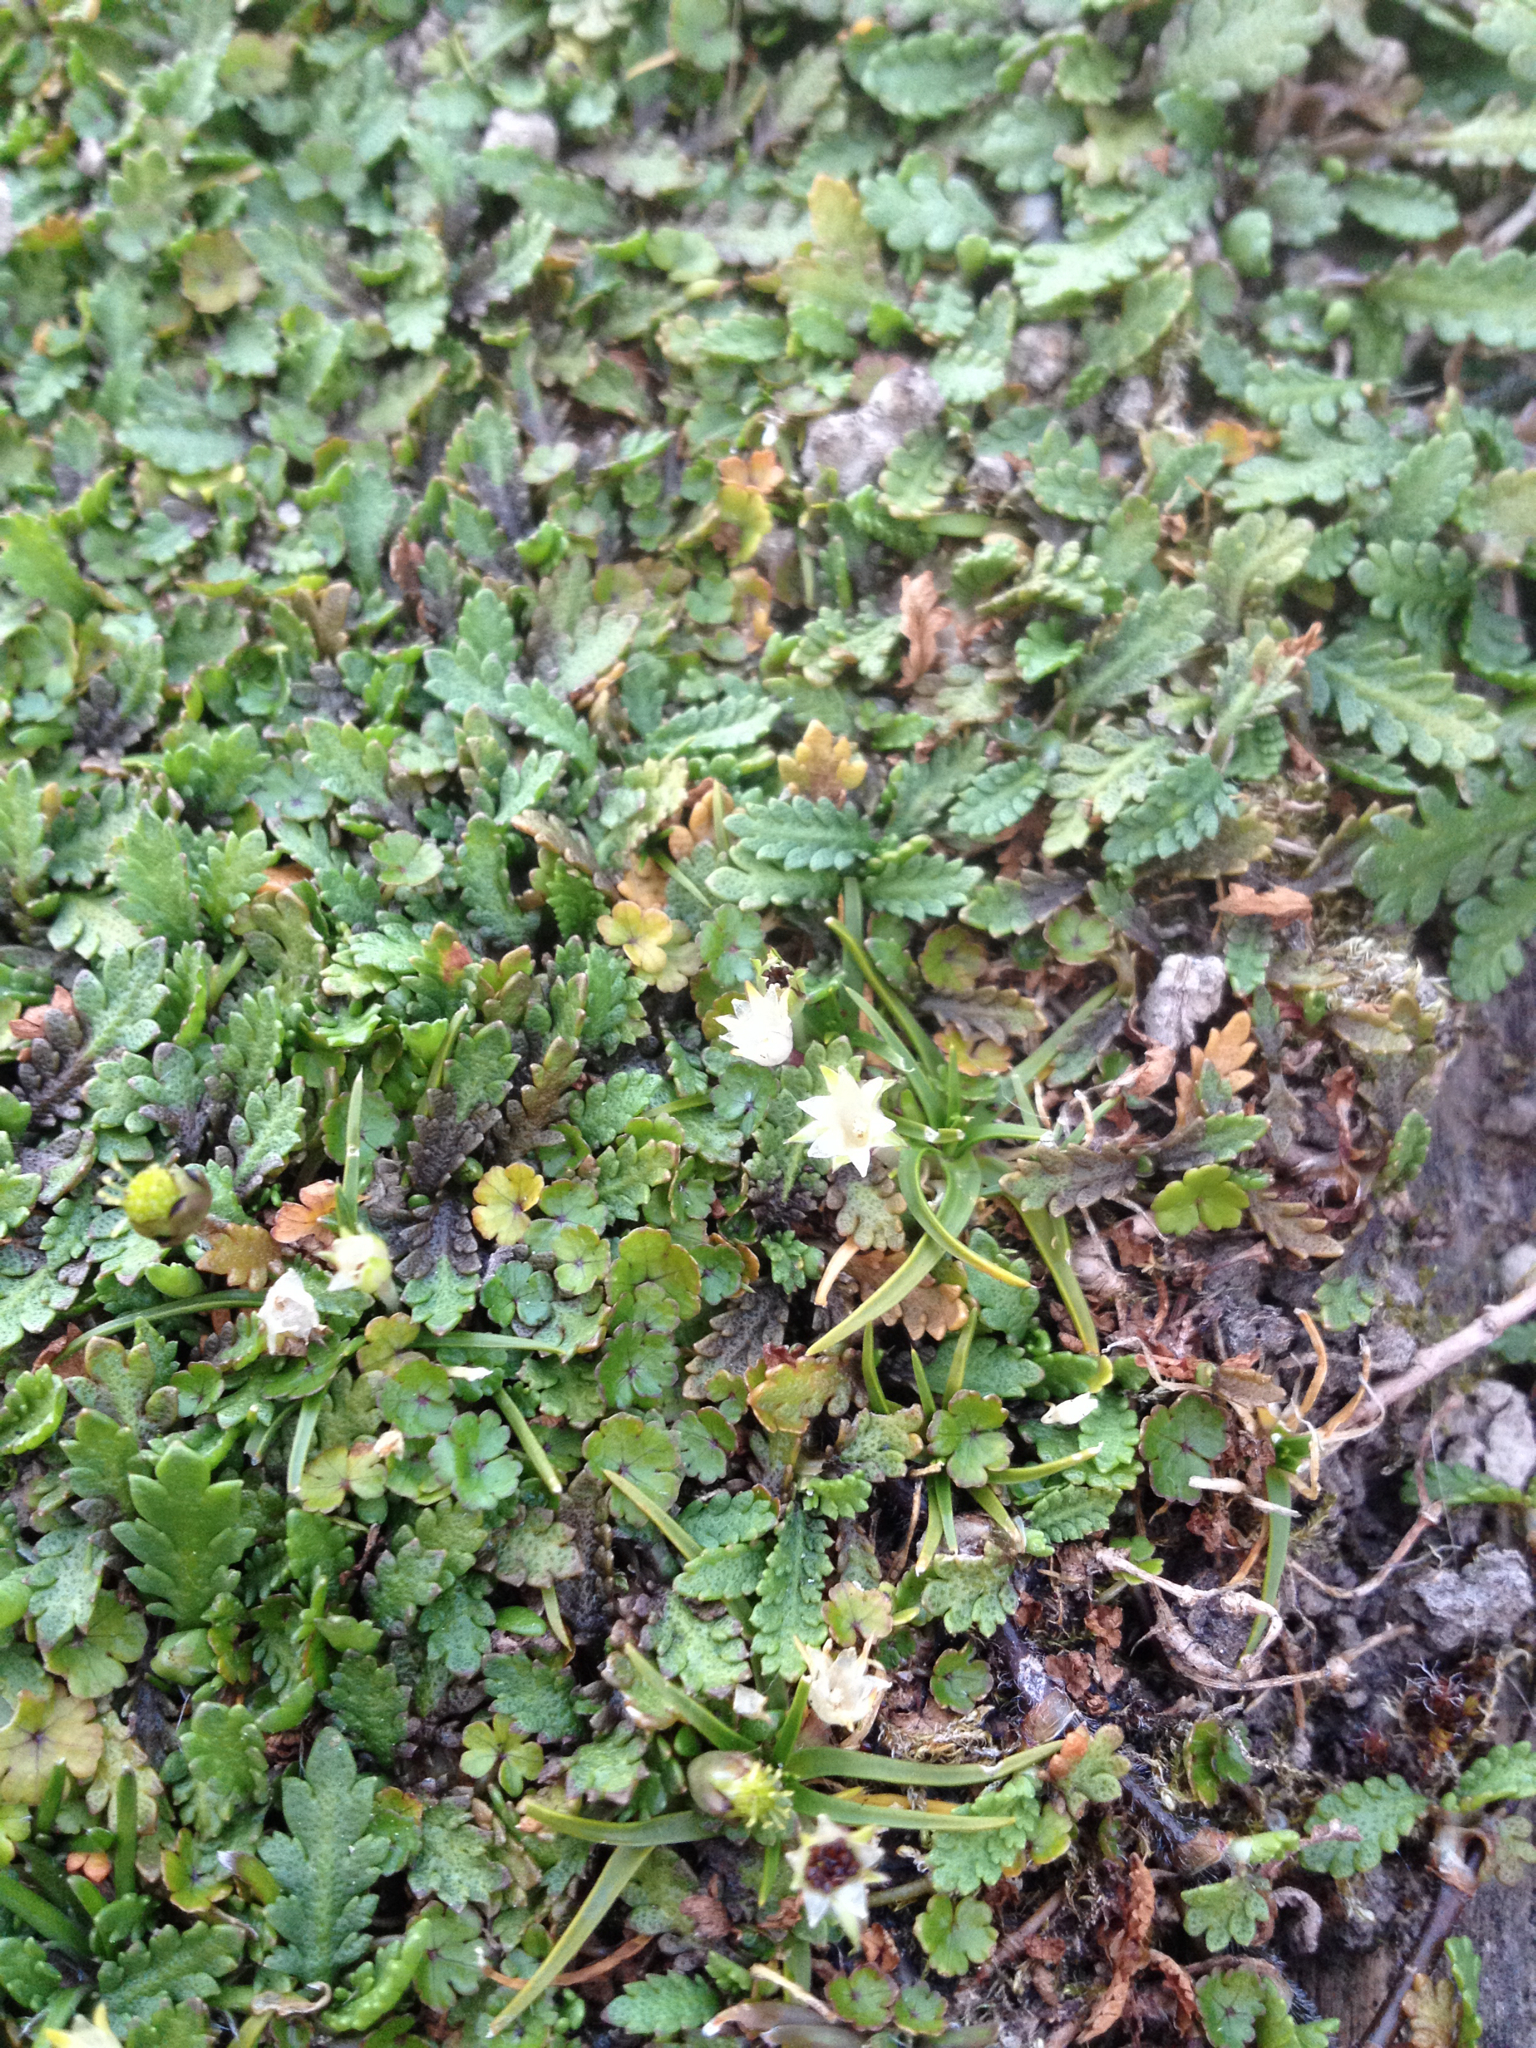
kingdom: Plantae
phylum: Tracheophyta
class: Magnoliopsida
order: Caryophyllales
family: Caryophyllaceae
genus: Colobanthus
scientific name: Colobanthus apetalus
